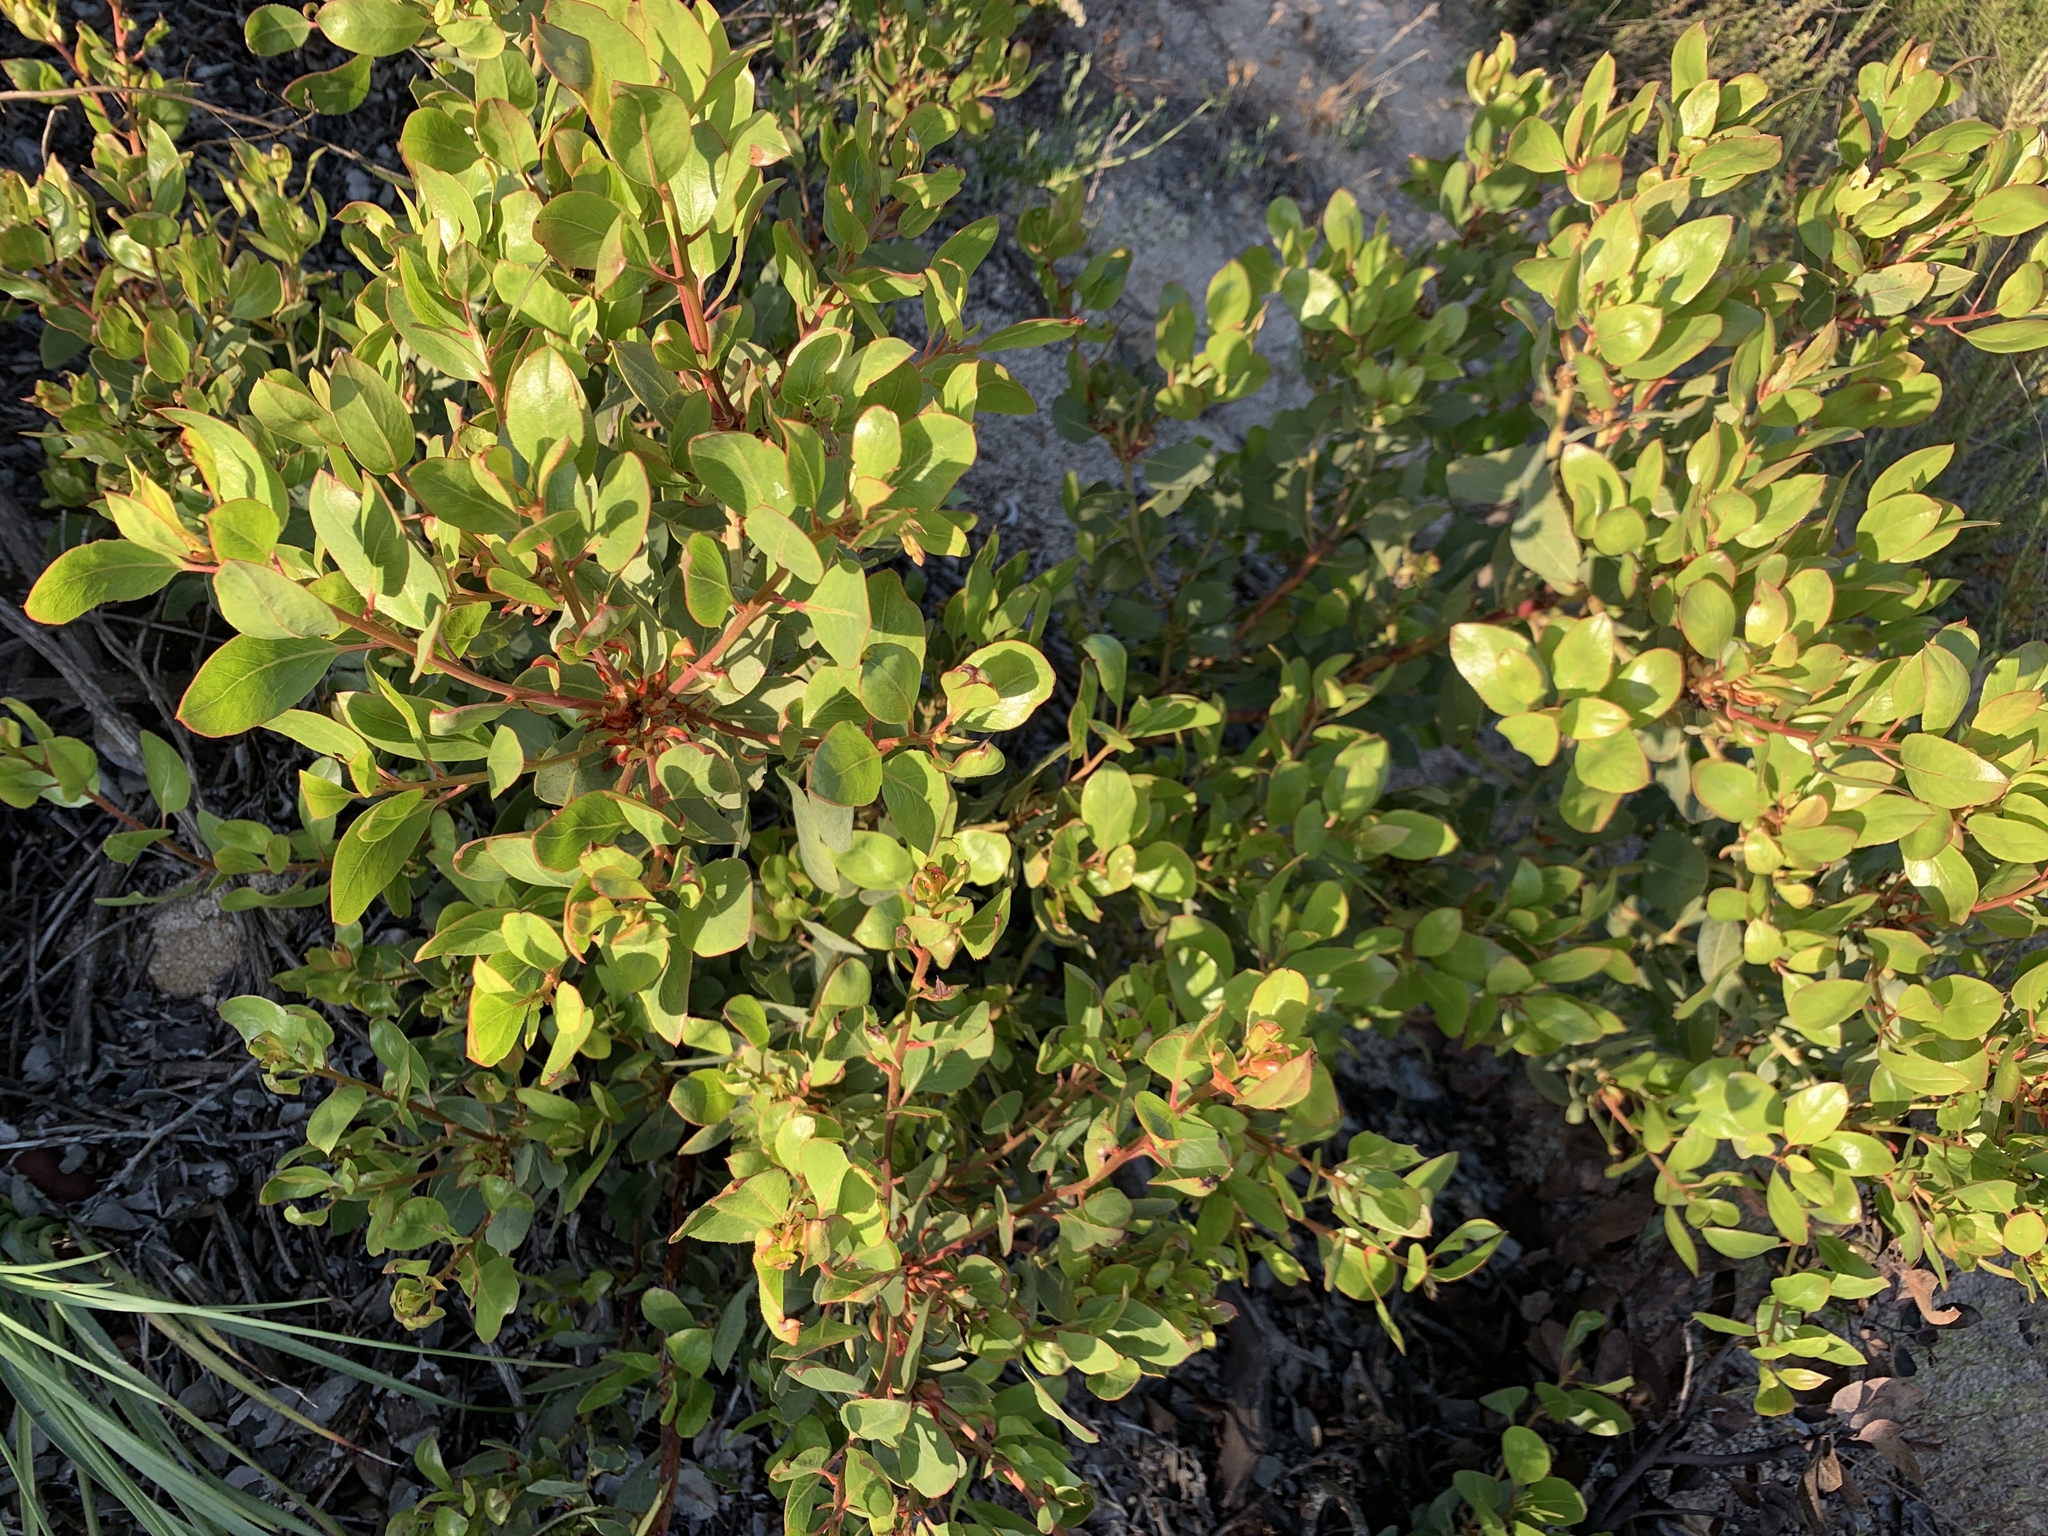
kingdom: Plantae
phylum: Tracheophyta
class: Magnoliopsida
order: Ericales
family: Ericaceae
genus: Arctostaphylos
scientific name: Arctostaphylos rainbowensis
